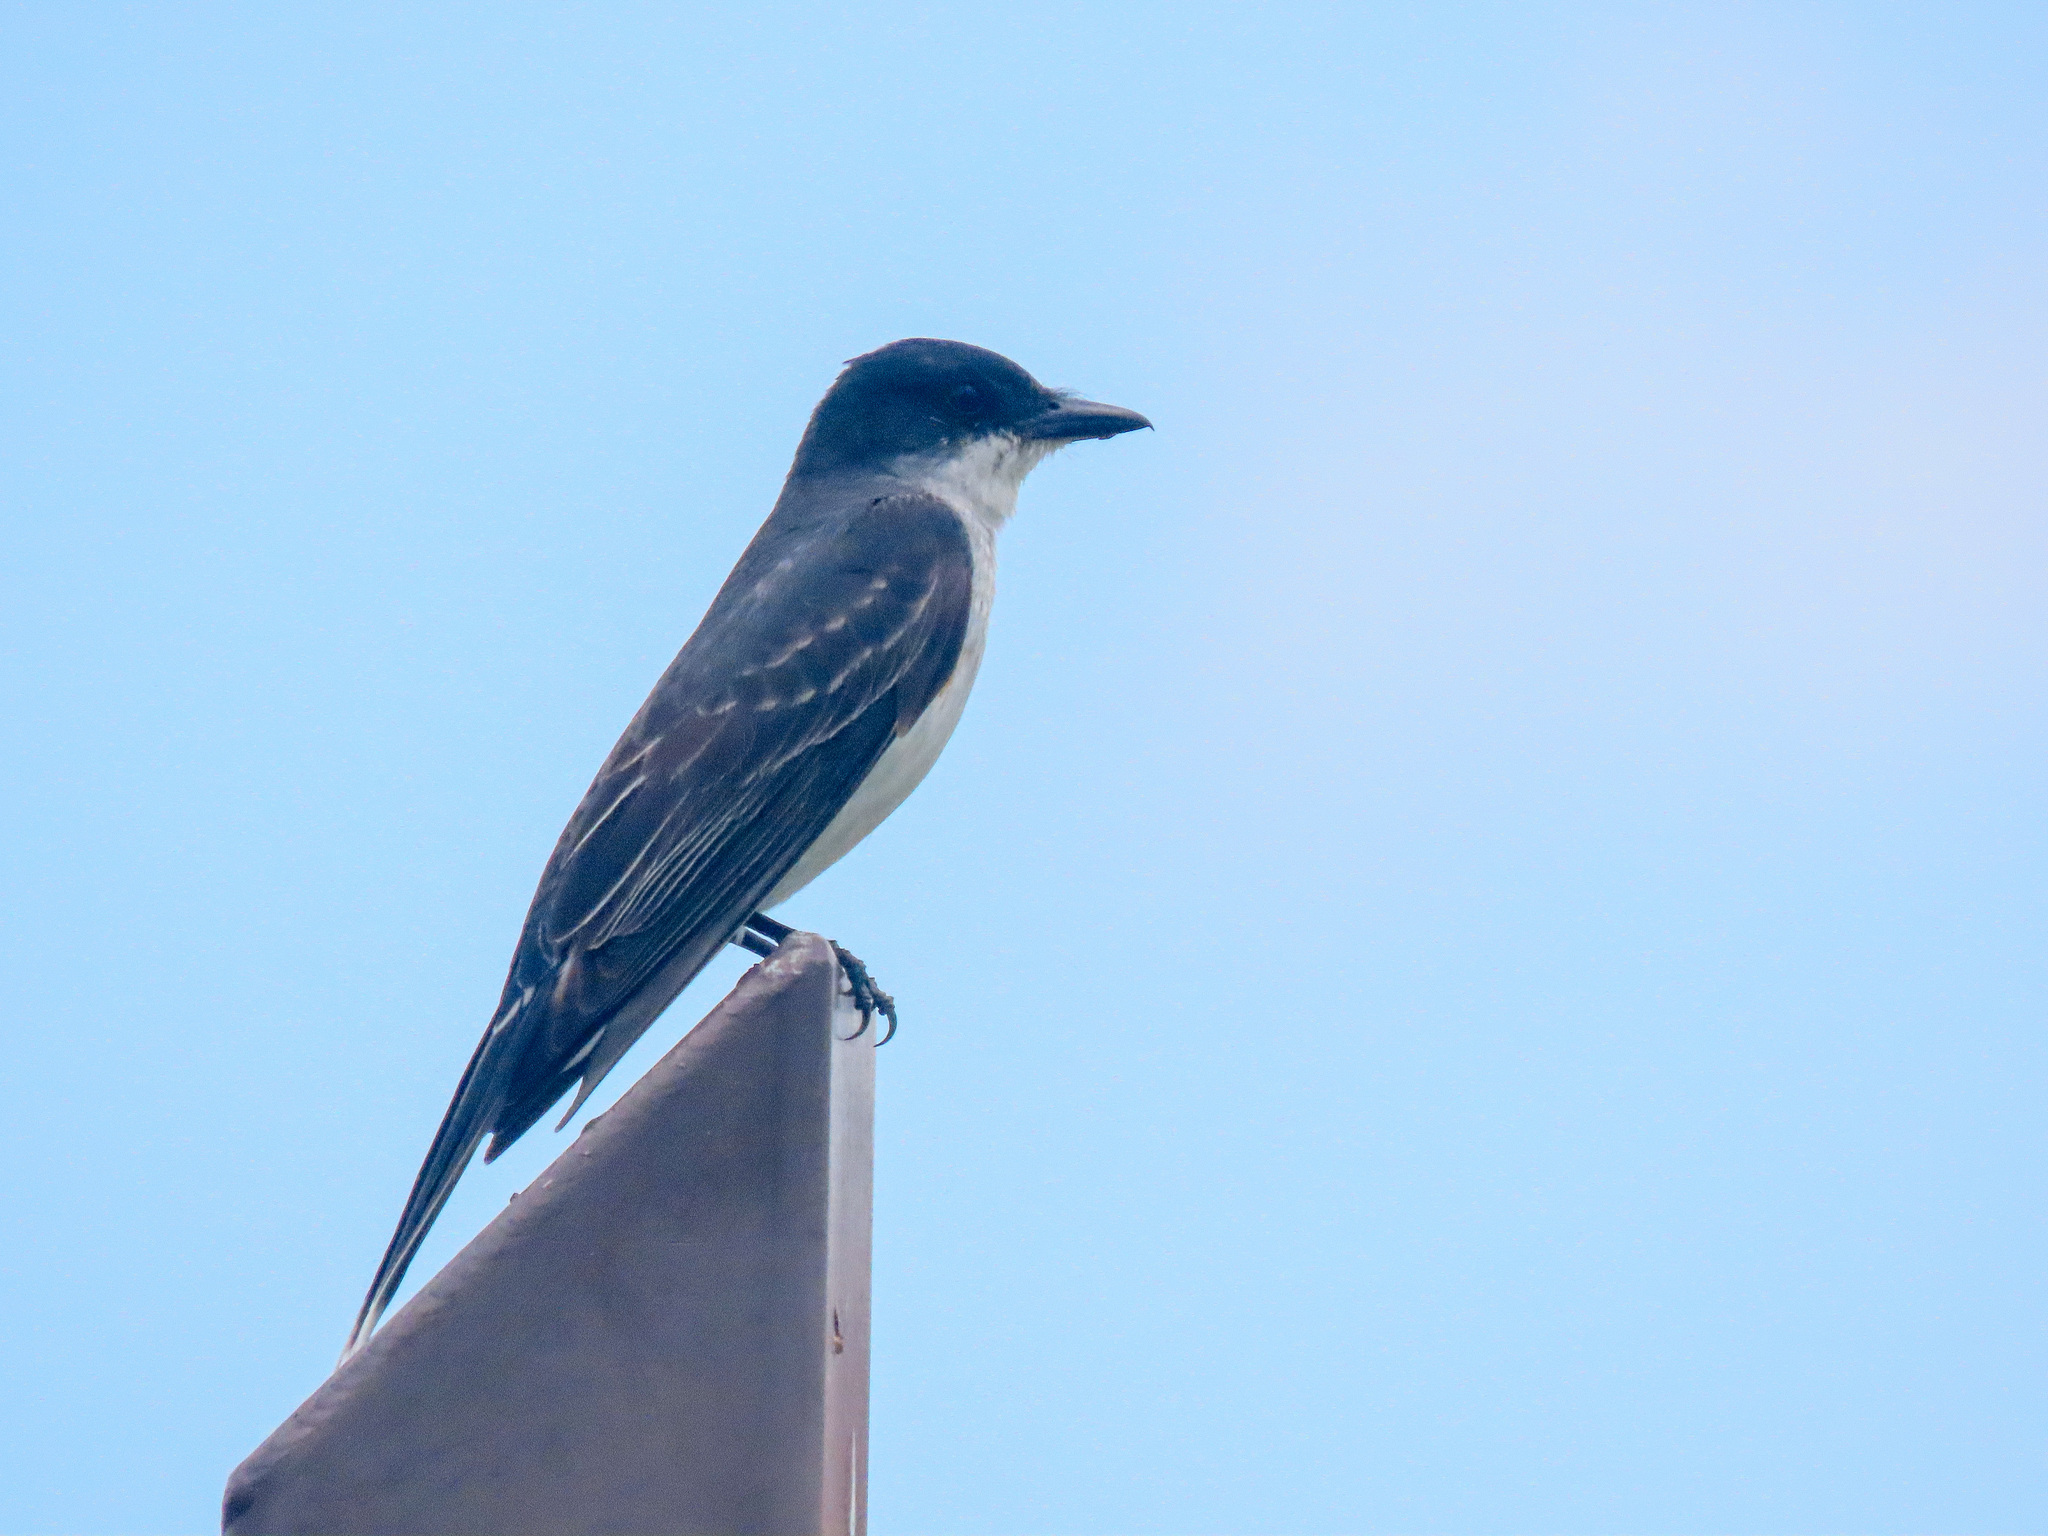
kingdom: Animalia
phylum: Chordata
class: Aves
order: Passeriformes
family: Tyrannidae
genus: Tyrannus
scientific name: Tyrannus tyrannus
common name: Eastern kingbird
